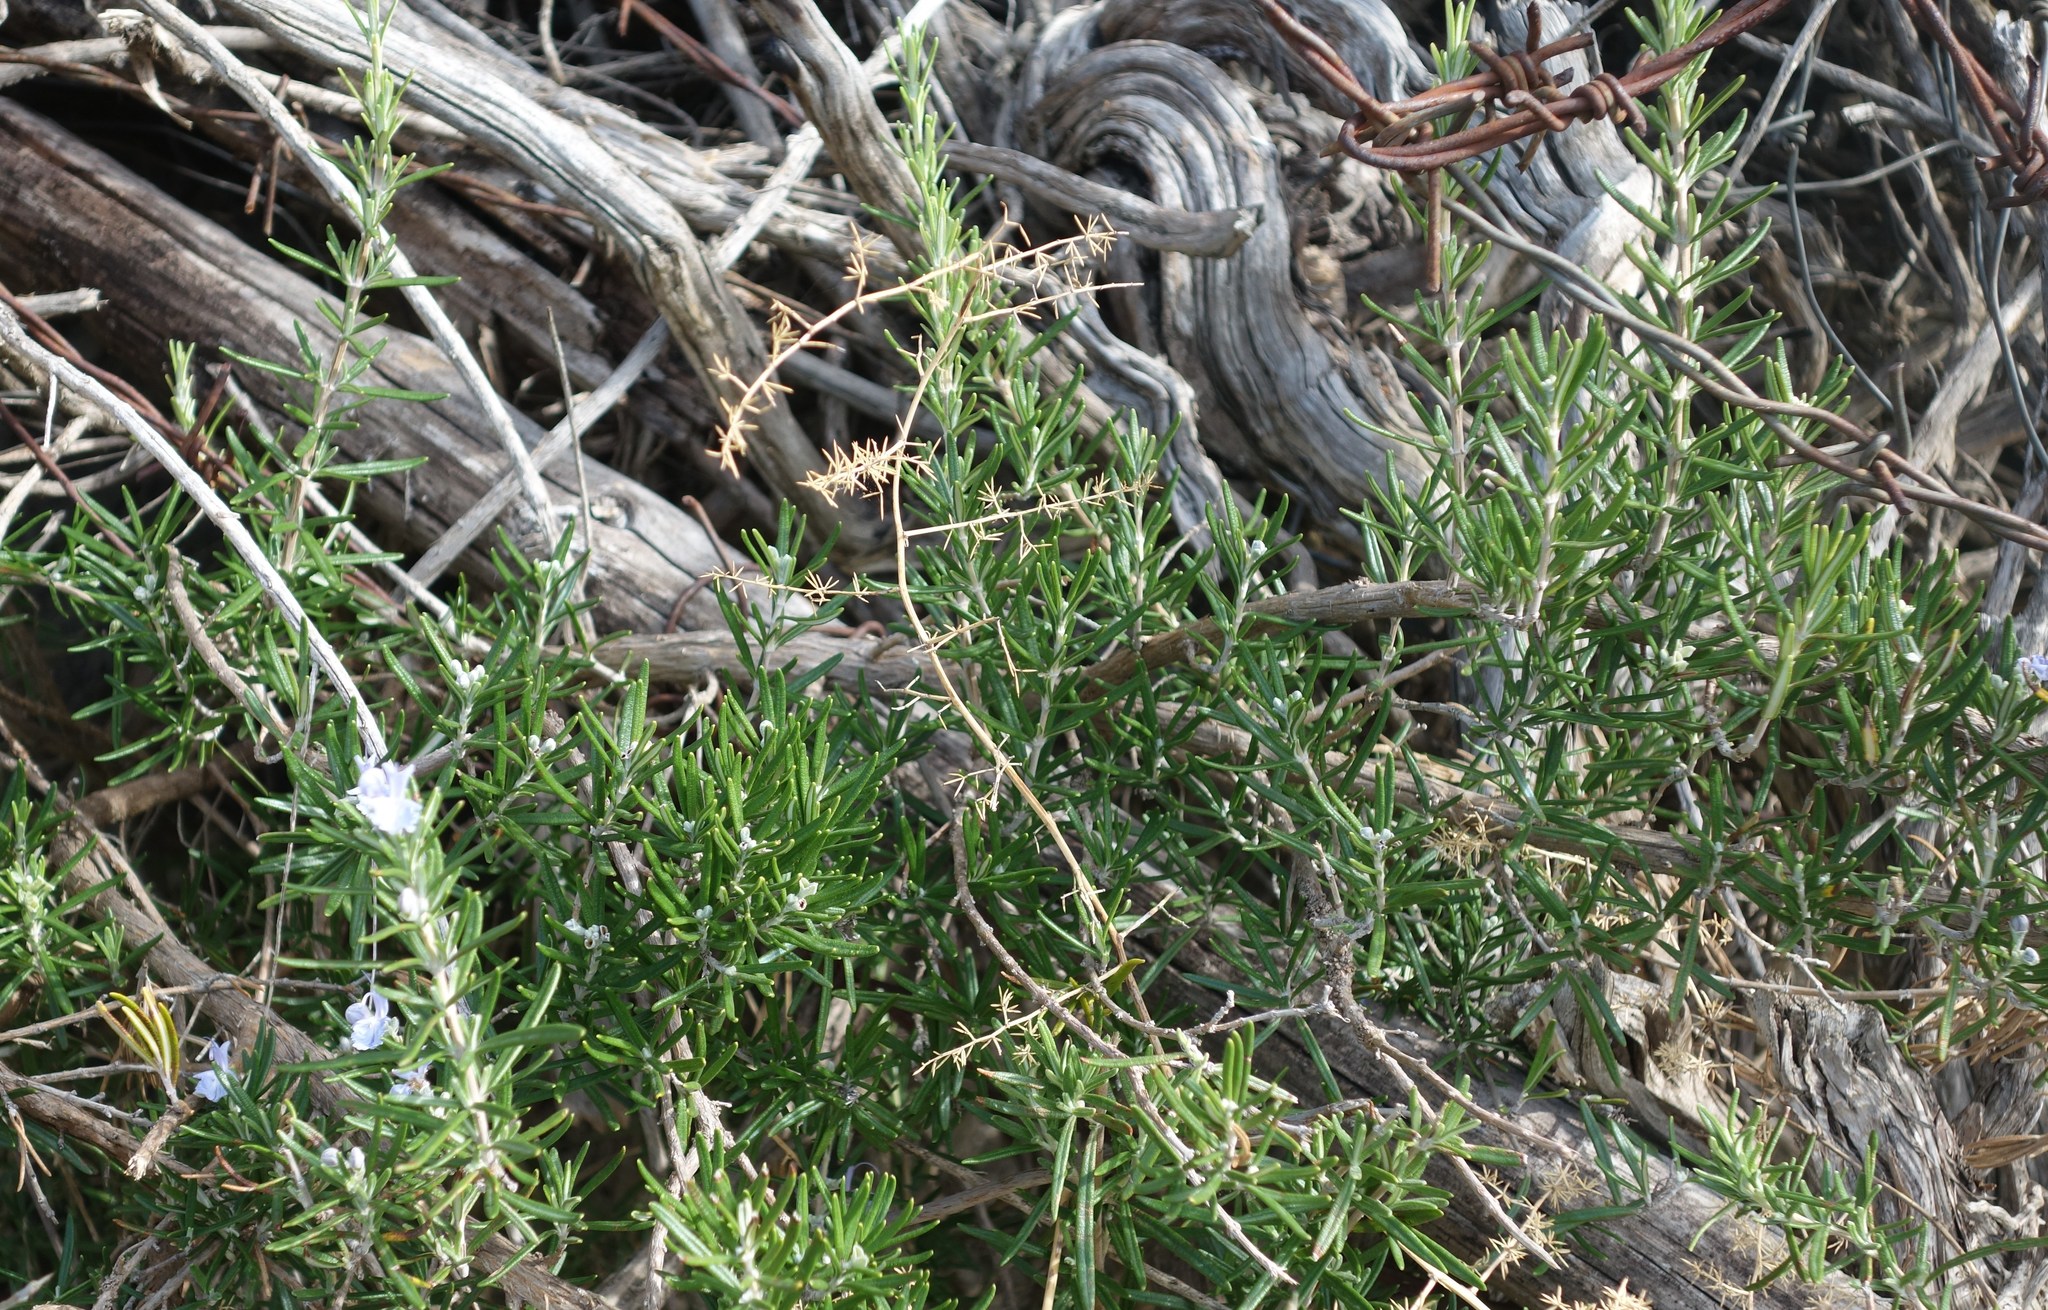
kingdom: Plantae
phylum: Tracheophyta
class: Magnoliopsida
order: Lamiales
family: Lamiaceae
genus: Salvia
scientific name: Salvia rosmarinus
